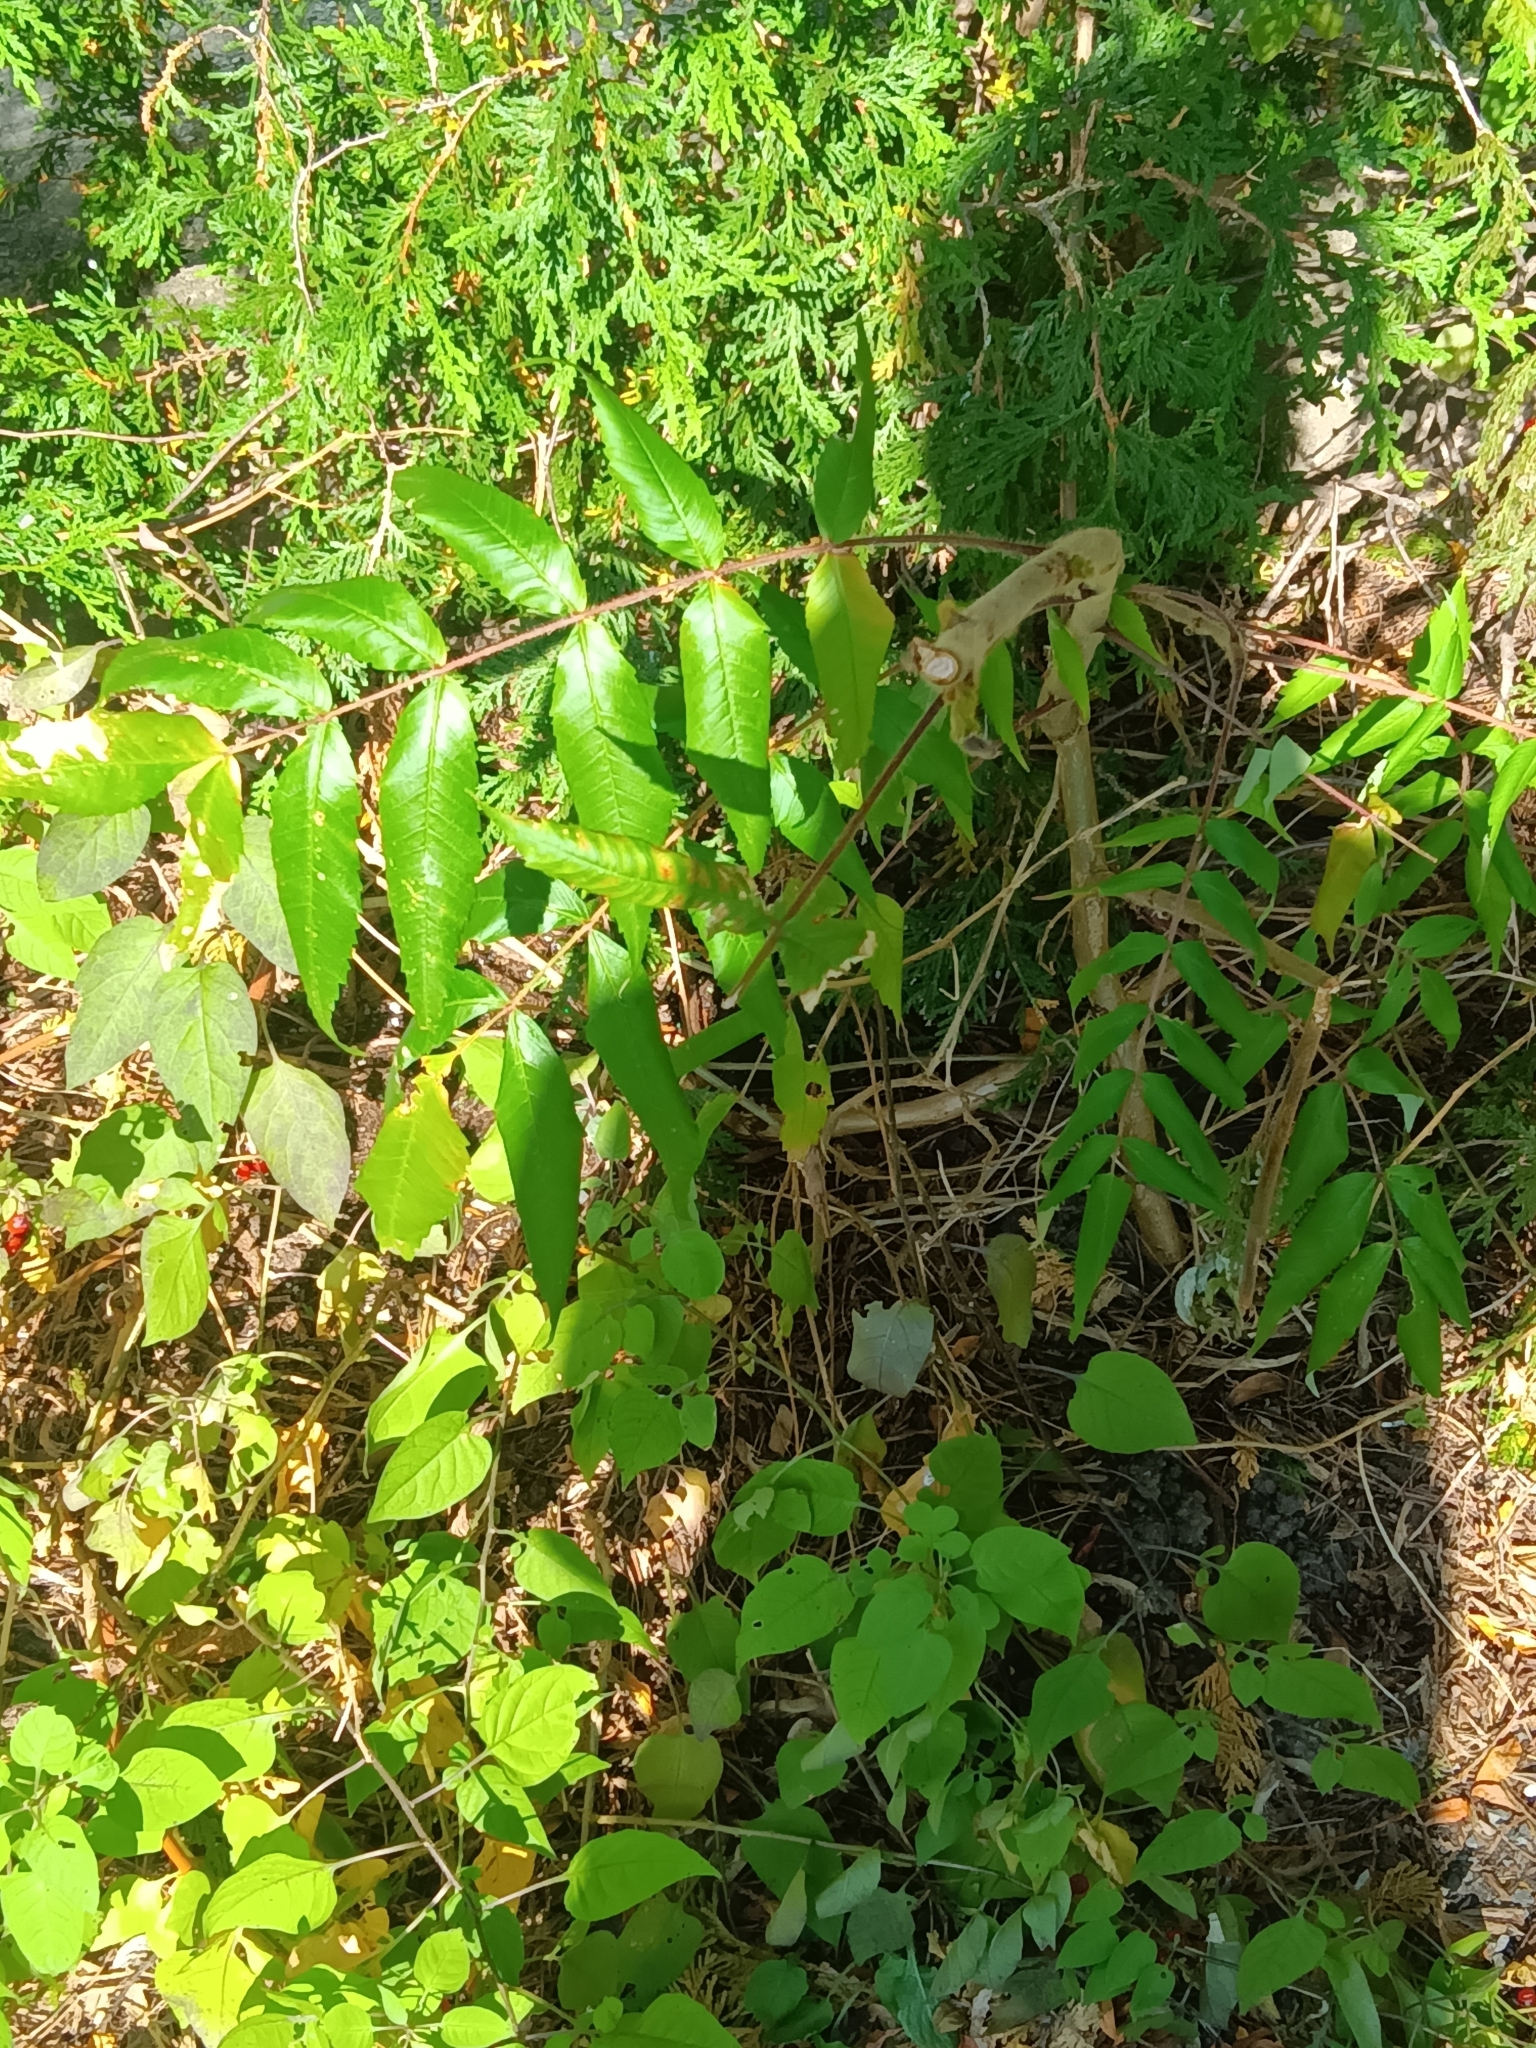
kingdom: Plantae
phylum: Tracheophyta
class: Magnoliopsida
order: Sapindales
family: Anacardiaceae
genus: Rhus
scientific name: Rhus typhina
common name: Staghorn sumac
